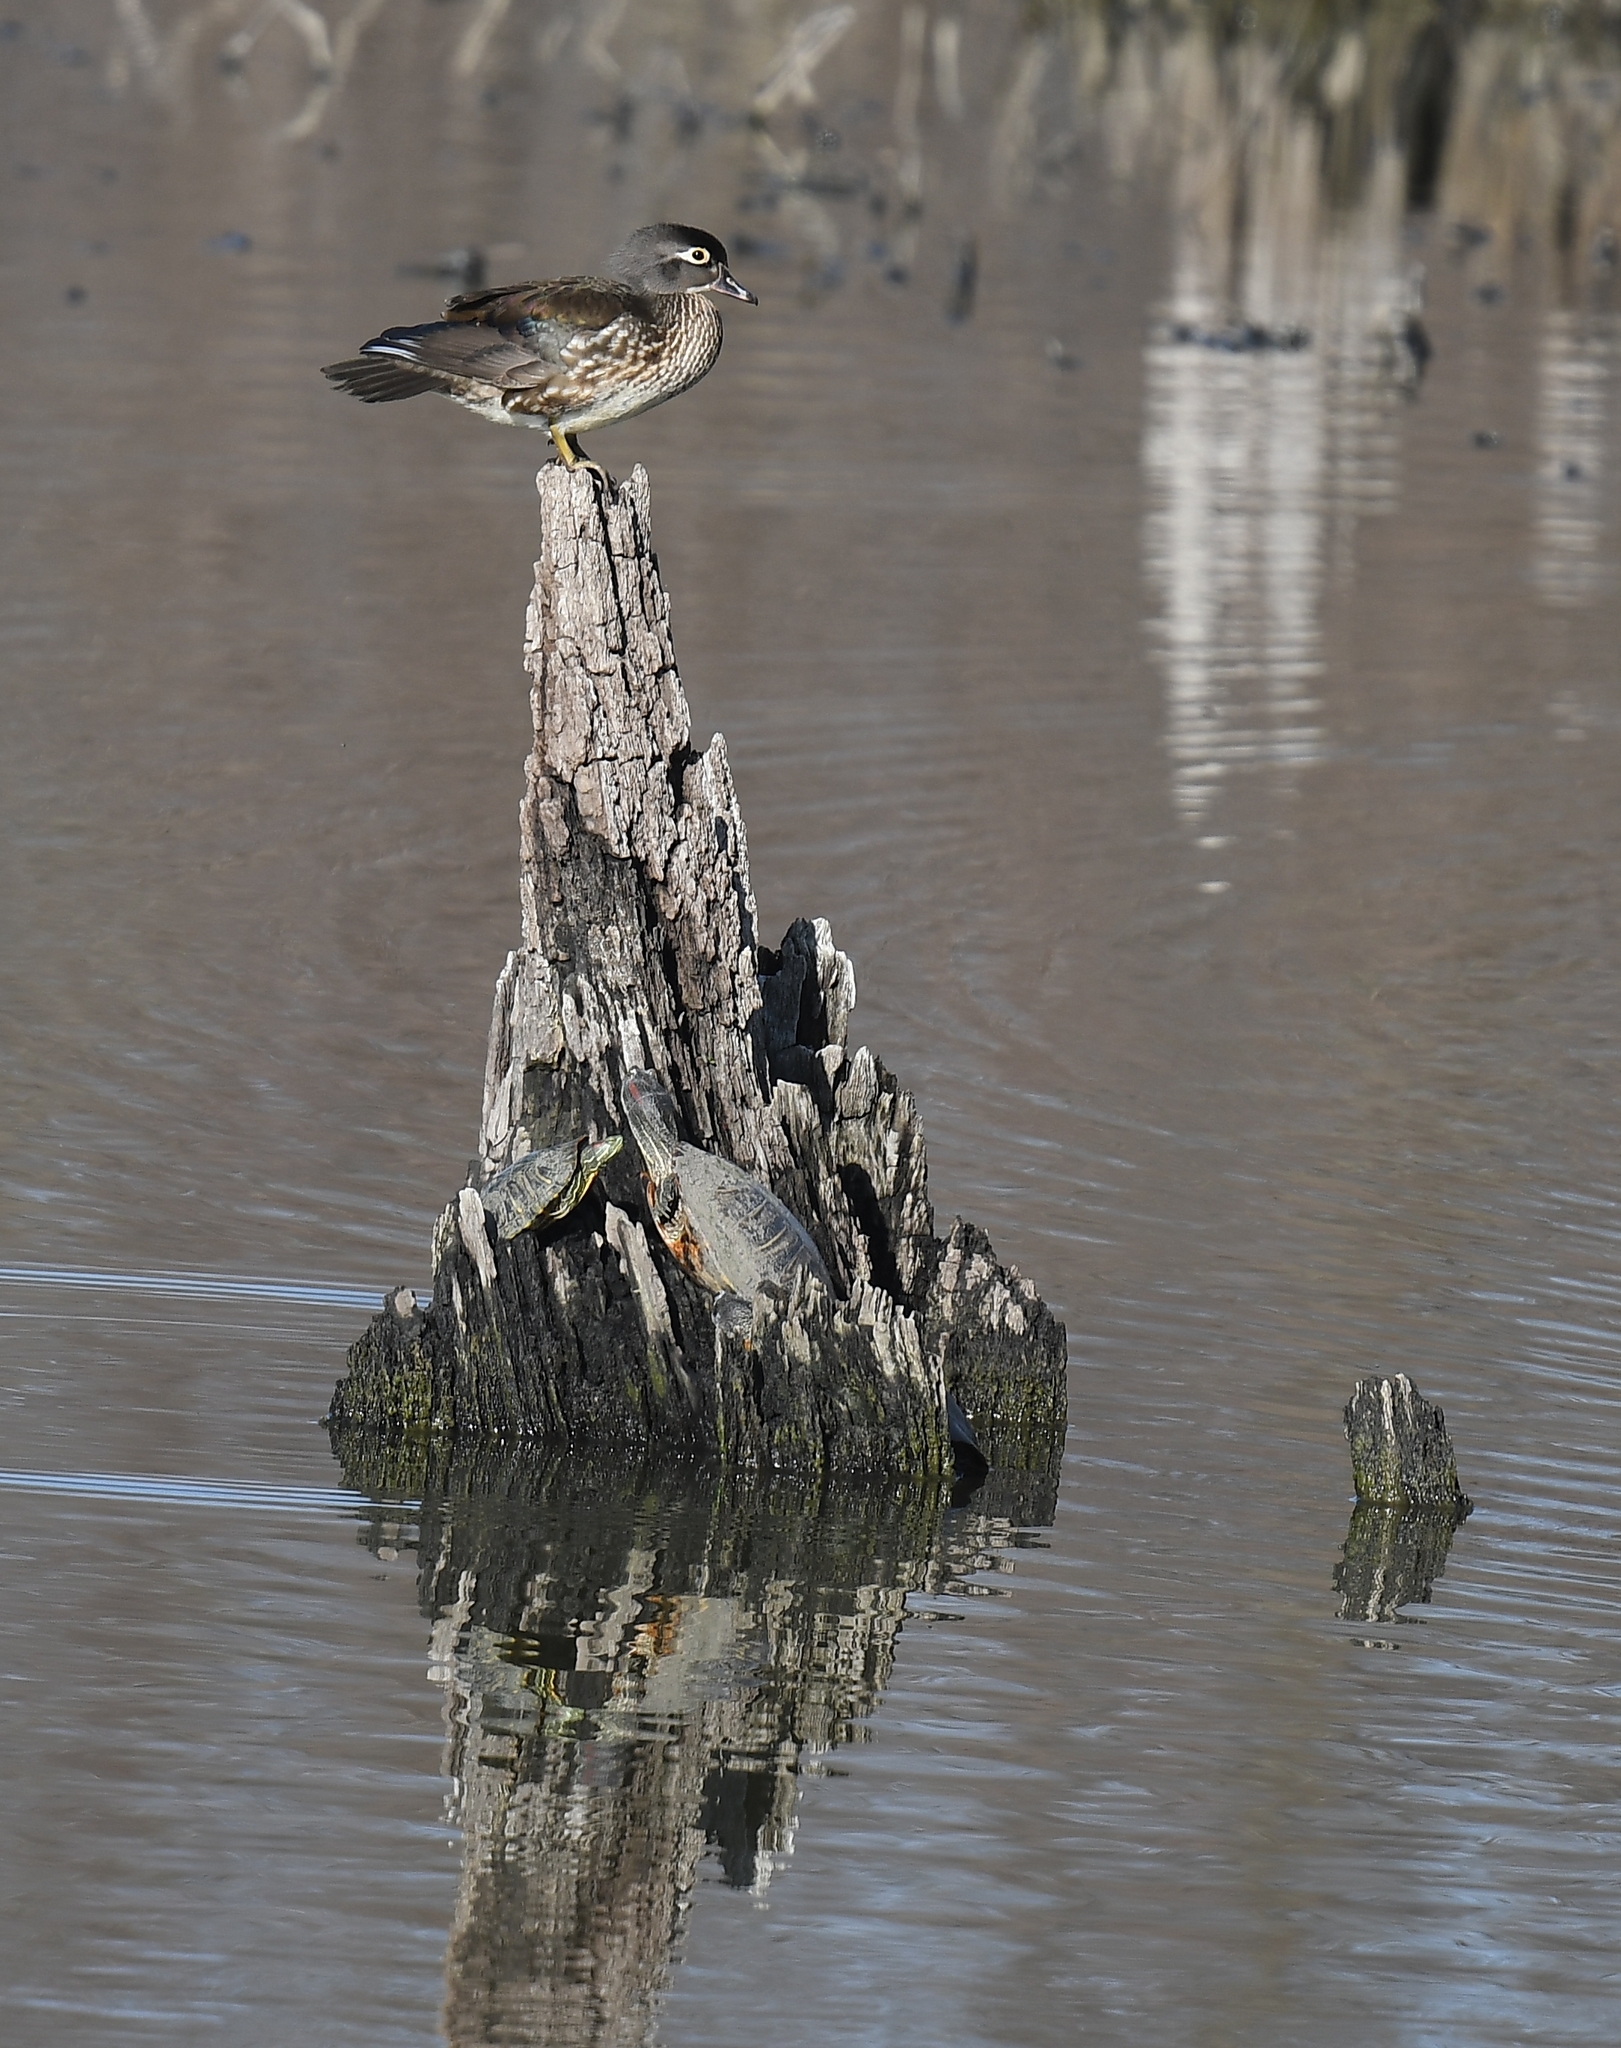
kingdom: Animalia
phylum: Chordata
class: Aves
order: Anseriformes
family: Anatidae
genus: Aix
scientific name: Aix sponsa
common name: Wood duck
